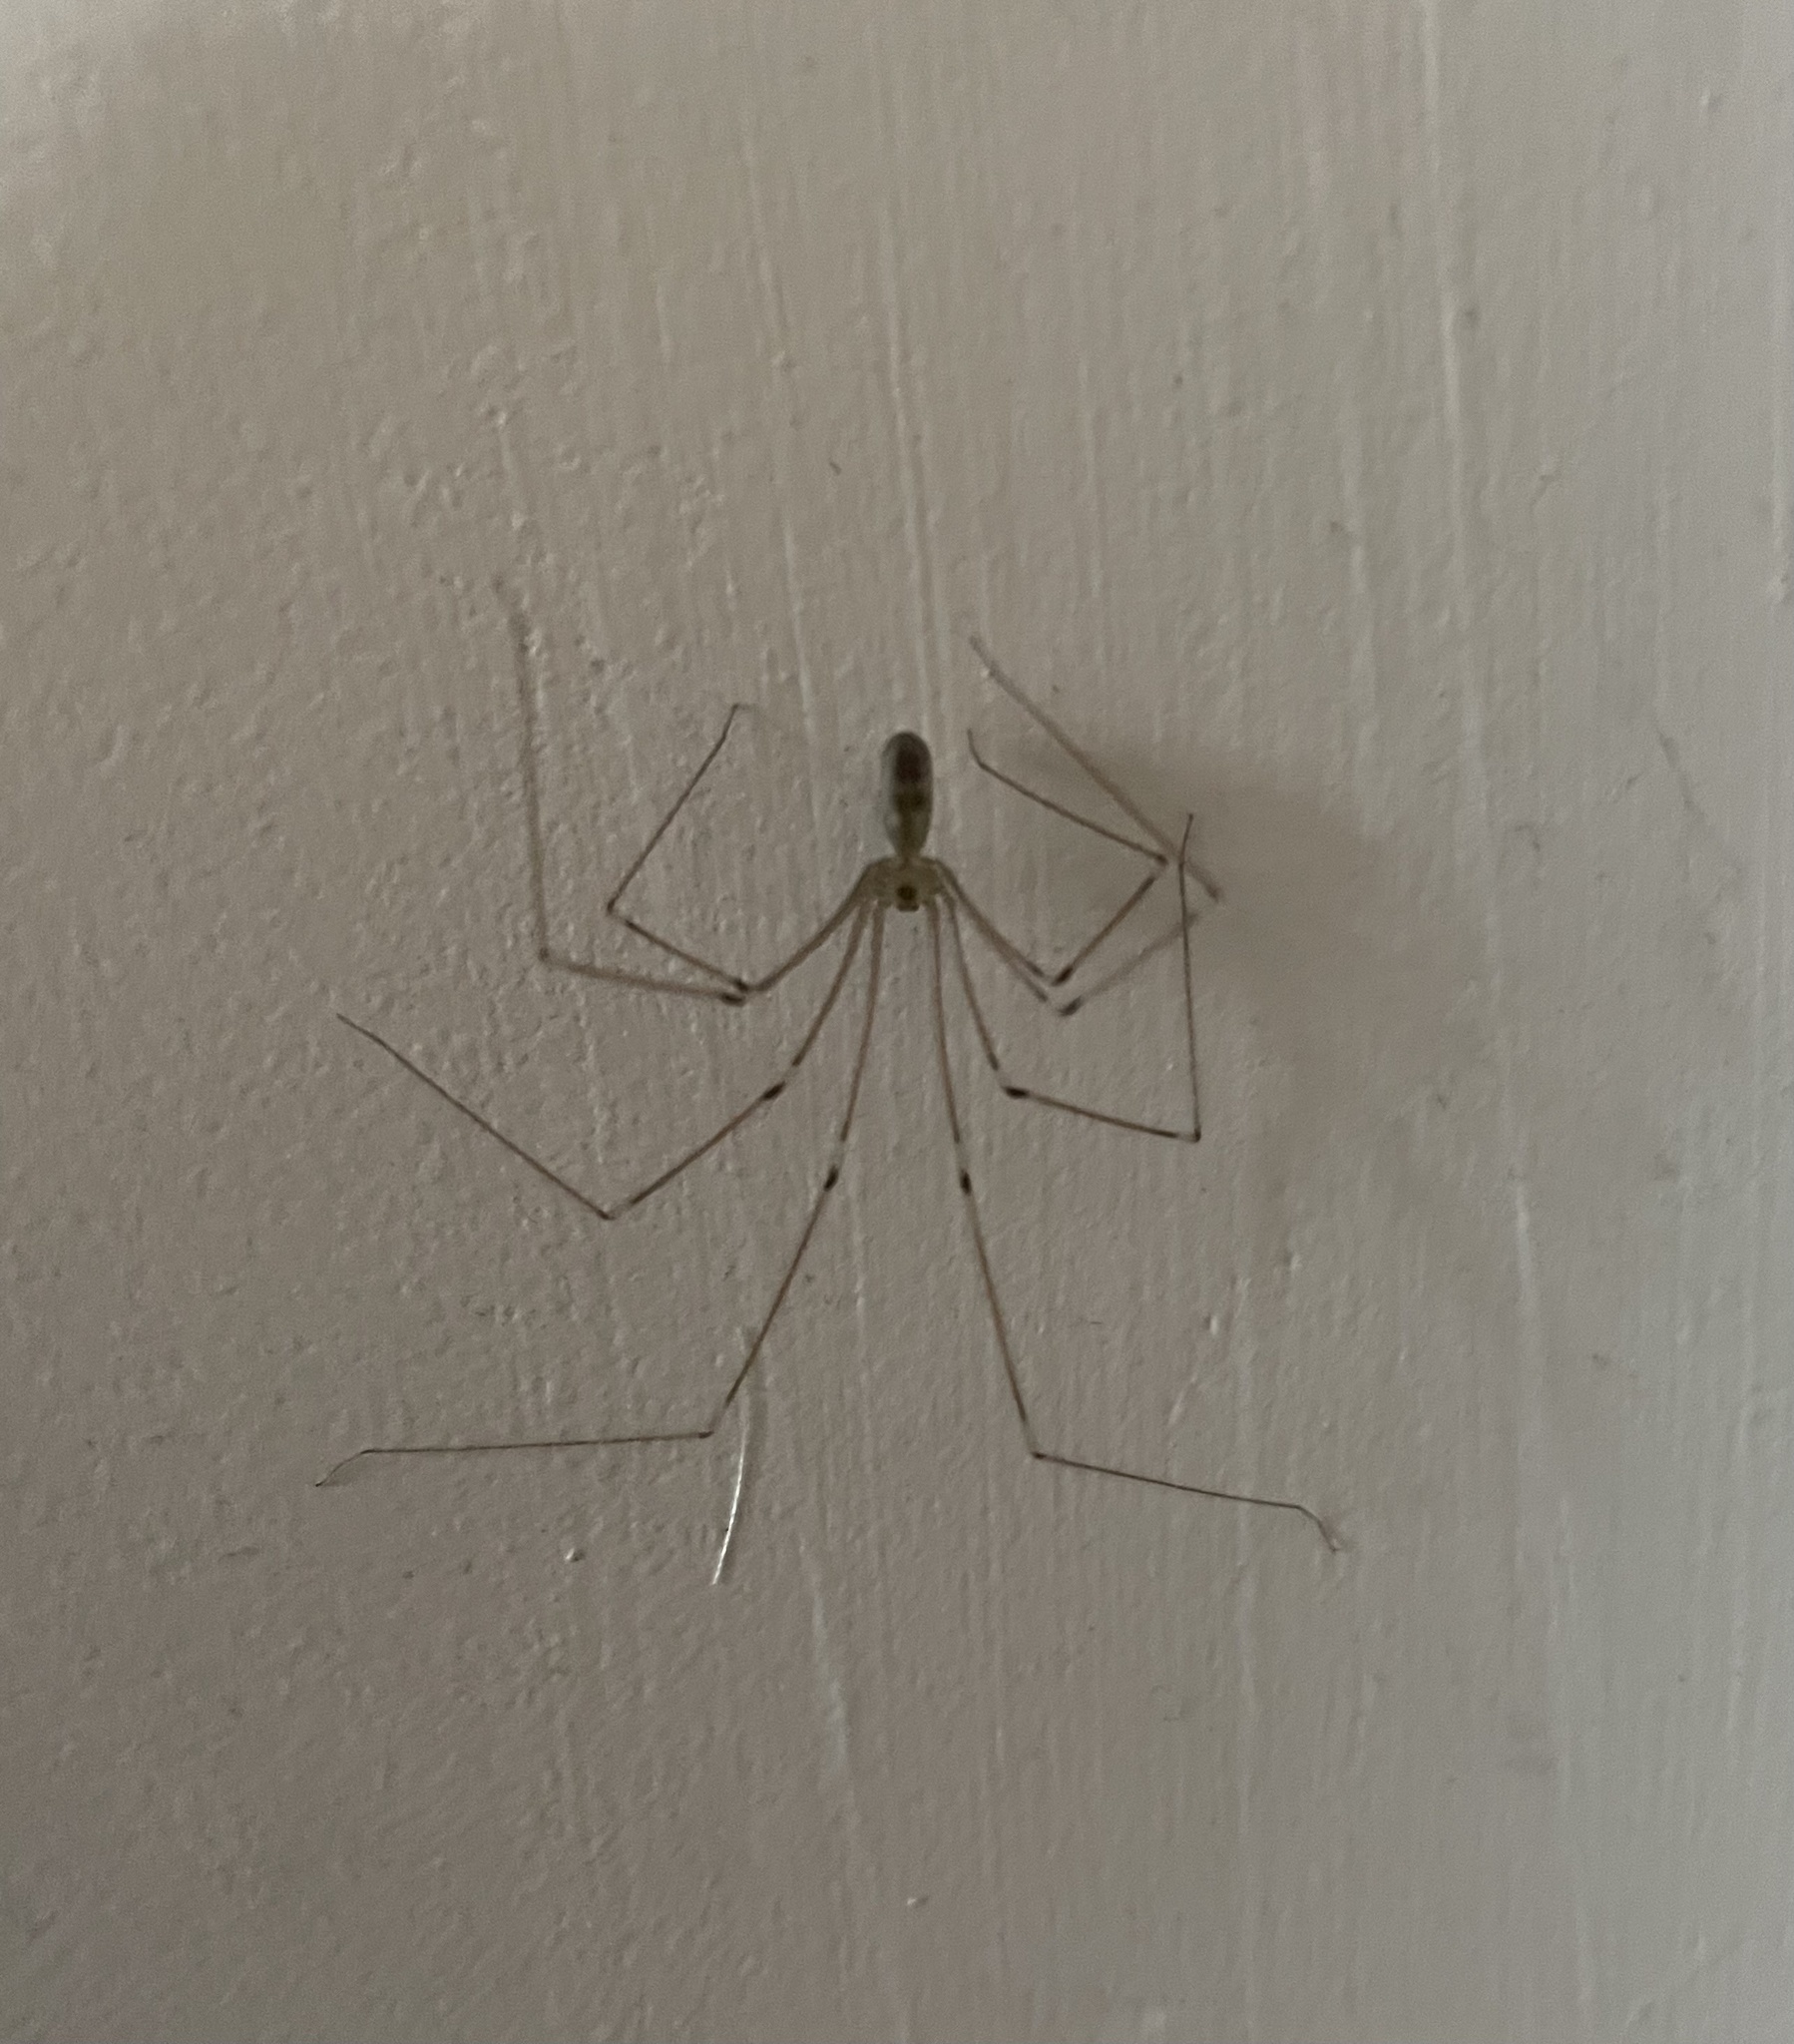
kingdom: Animalia
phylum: Arthropoda
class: Arachnida
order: Araneae
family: Pholcidae
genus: Pholcus
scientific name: Pholcus phalangioides
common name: Longbodied cellar spider
